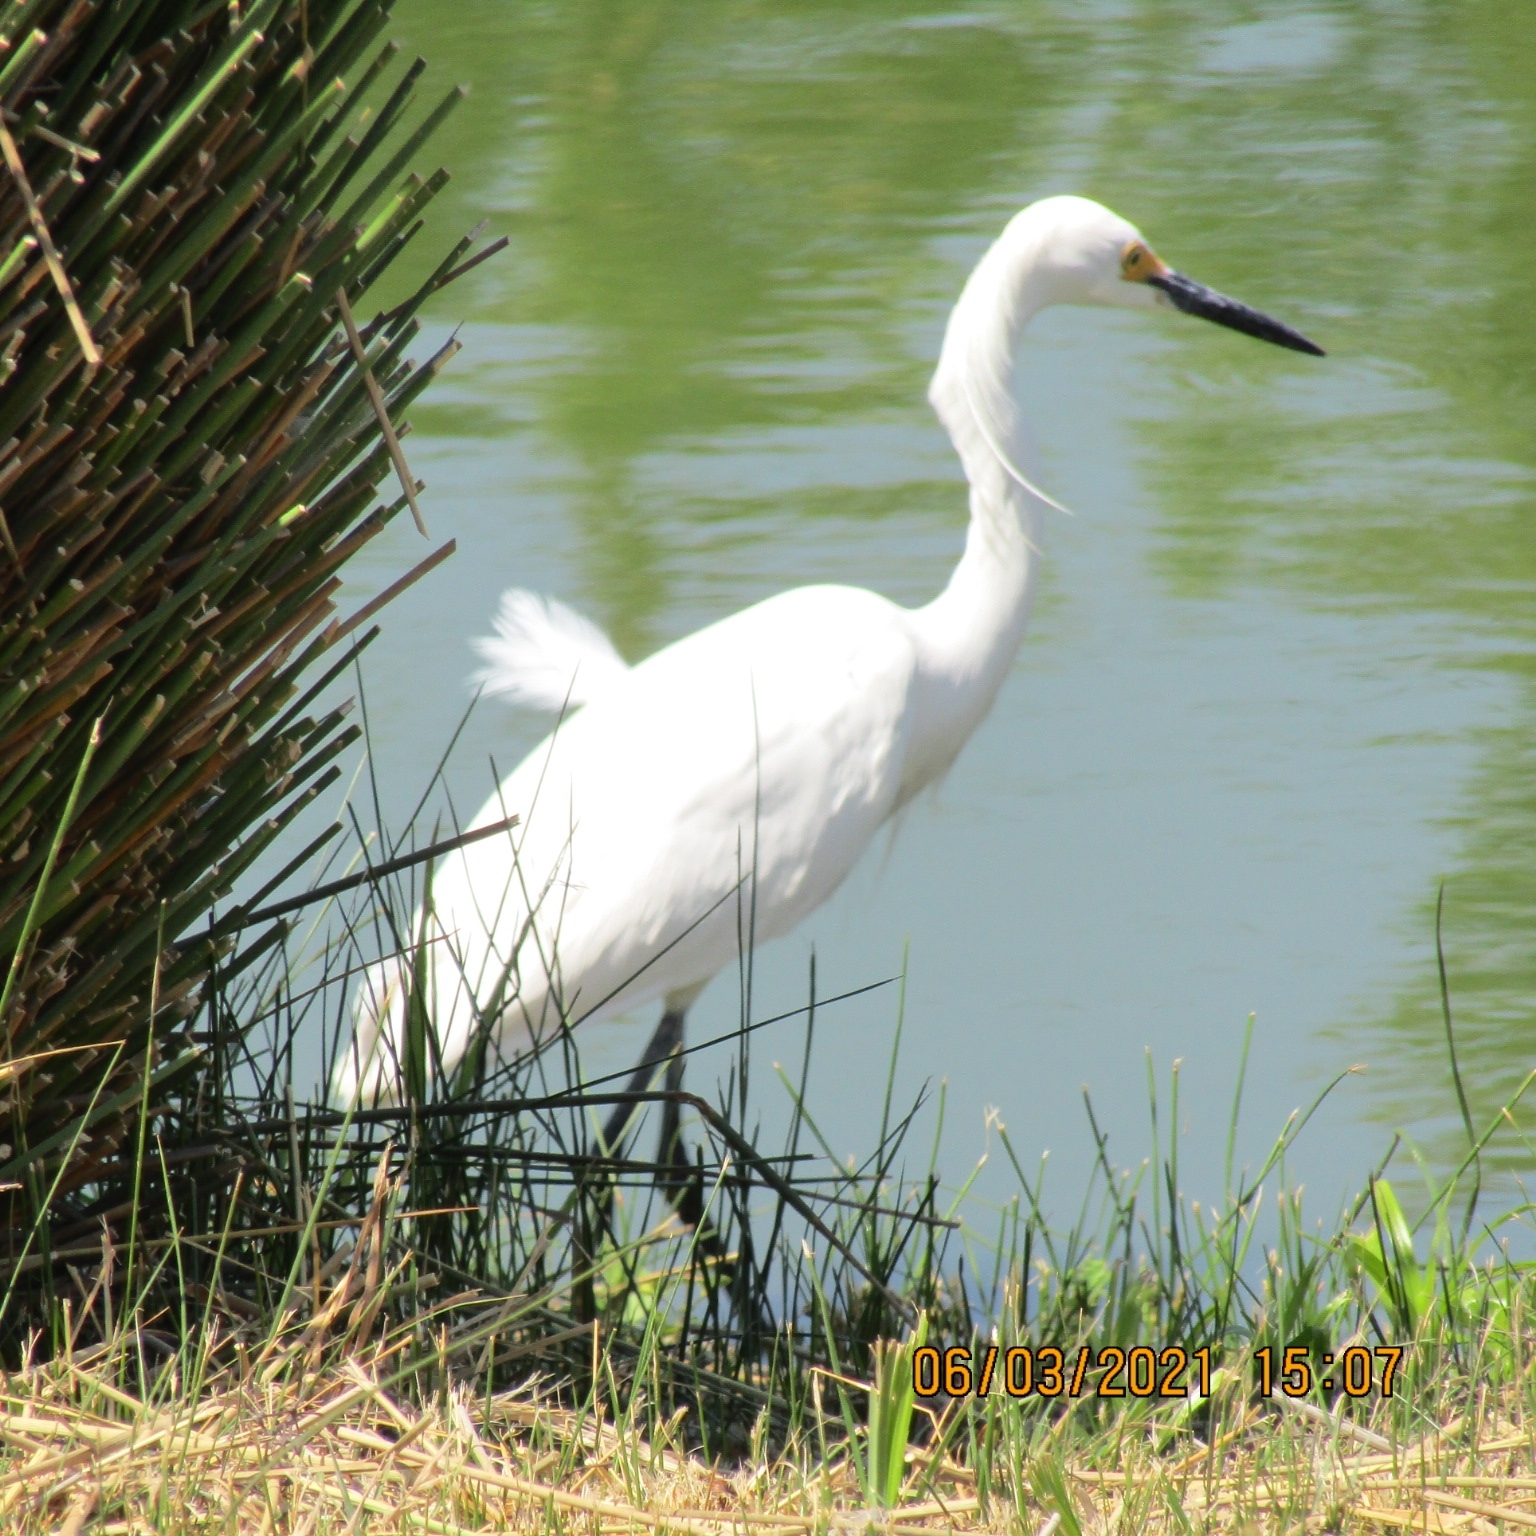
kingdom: Animalia
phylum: Chordata
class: Aves
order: Pelecaniformes
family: Ardeidae
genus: Egretta
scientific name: Egretta thula
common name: Snowy egret
